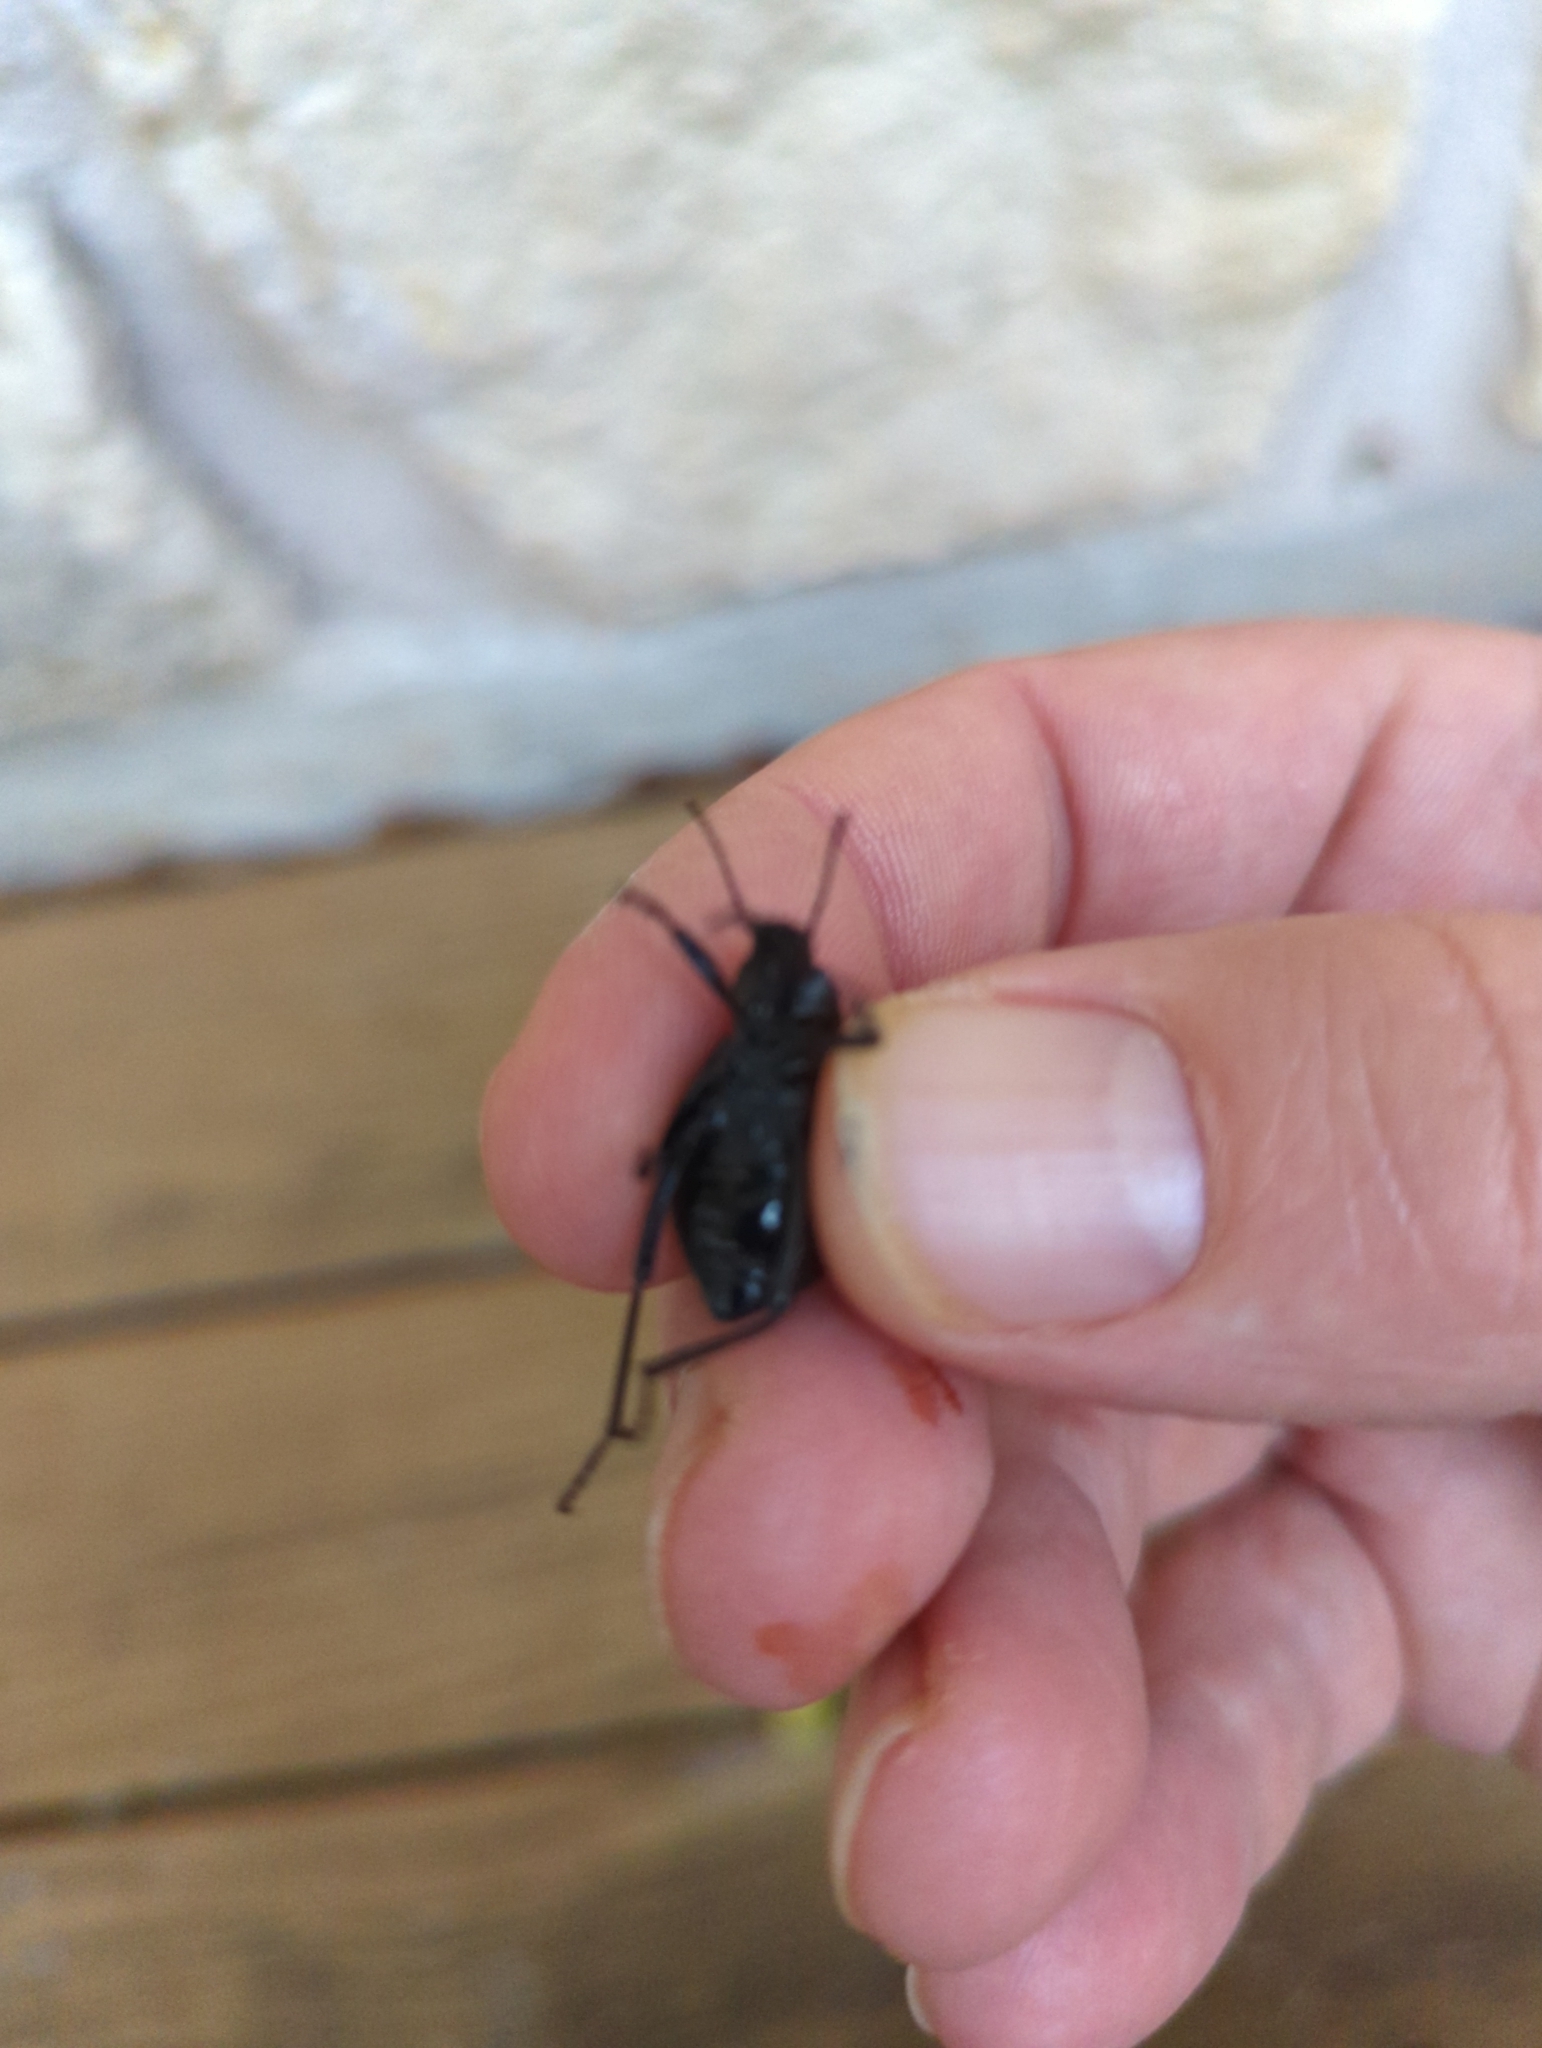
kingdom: Animalia
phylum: Arthropoda
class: Insecta
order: Coleoptera
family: Tenebrionidae
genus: Eleodes
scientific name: Eleodes goryi
